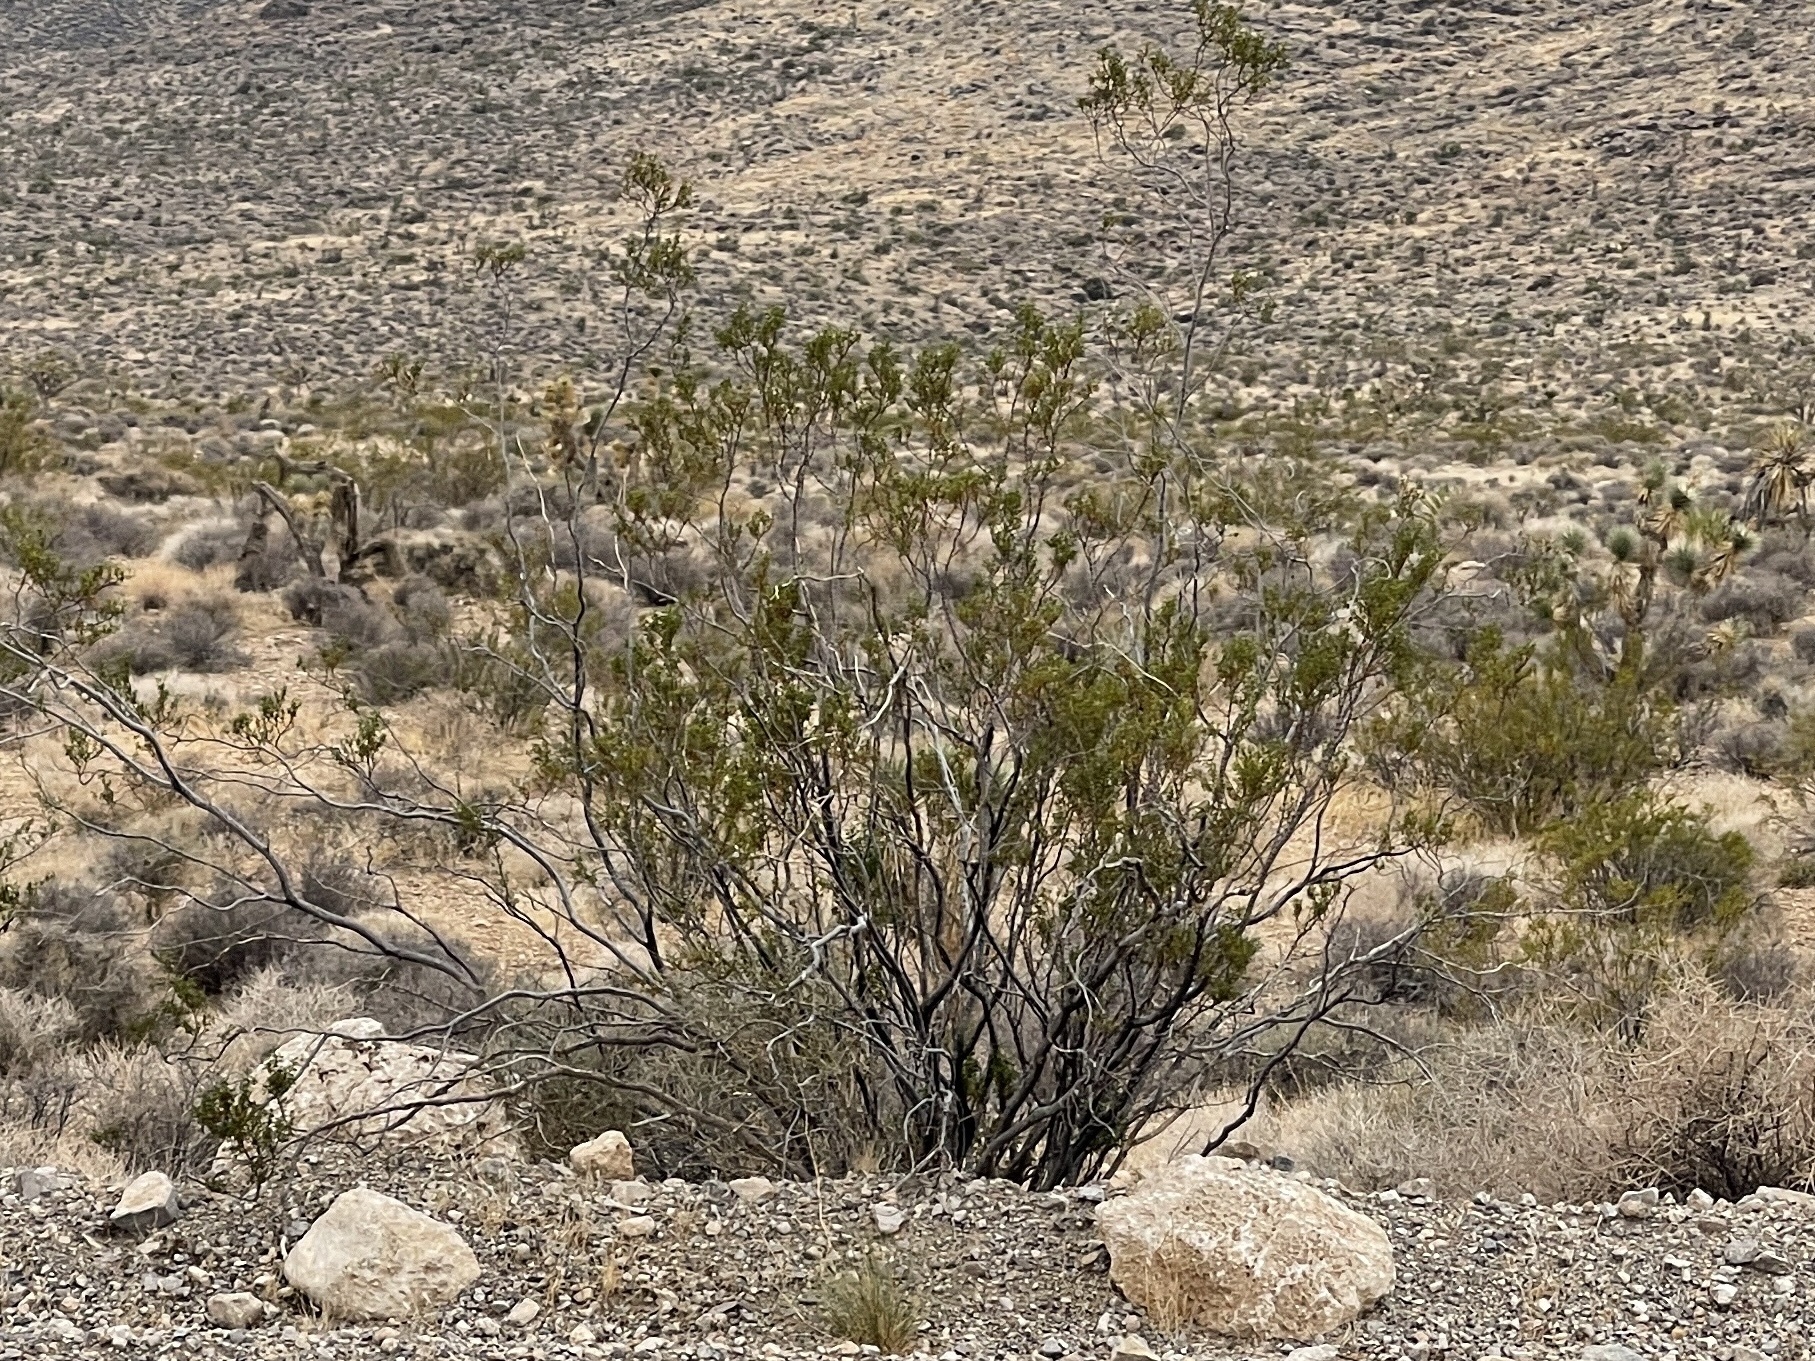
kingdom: Plantae
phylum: Tracheophyta
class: Magnoliopsida
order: Zygophyllales
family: Zygophyllaceae
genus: Larrea
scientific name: Larrea tridentata
